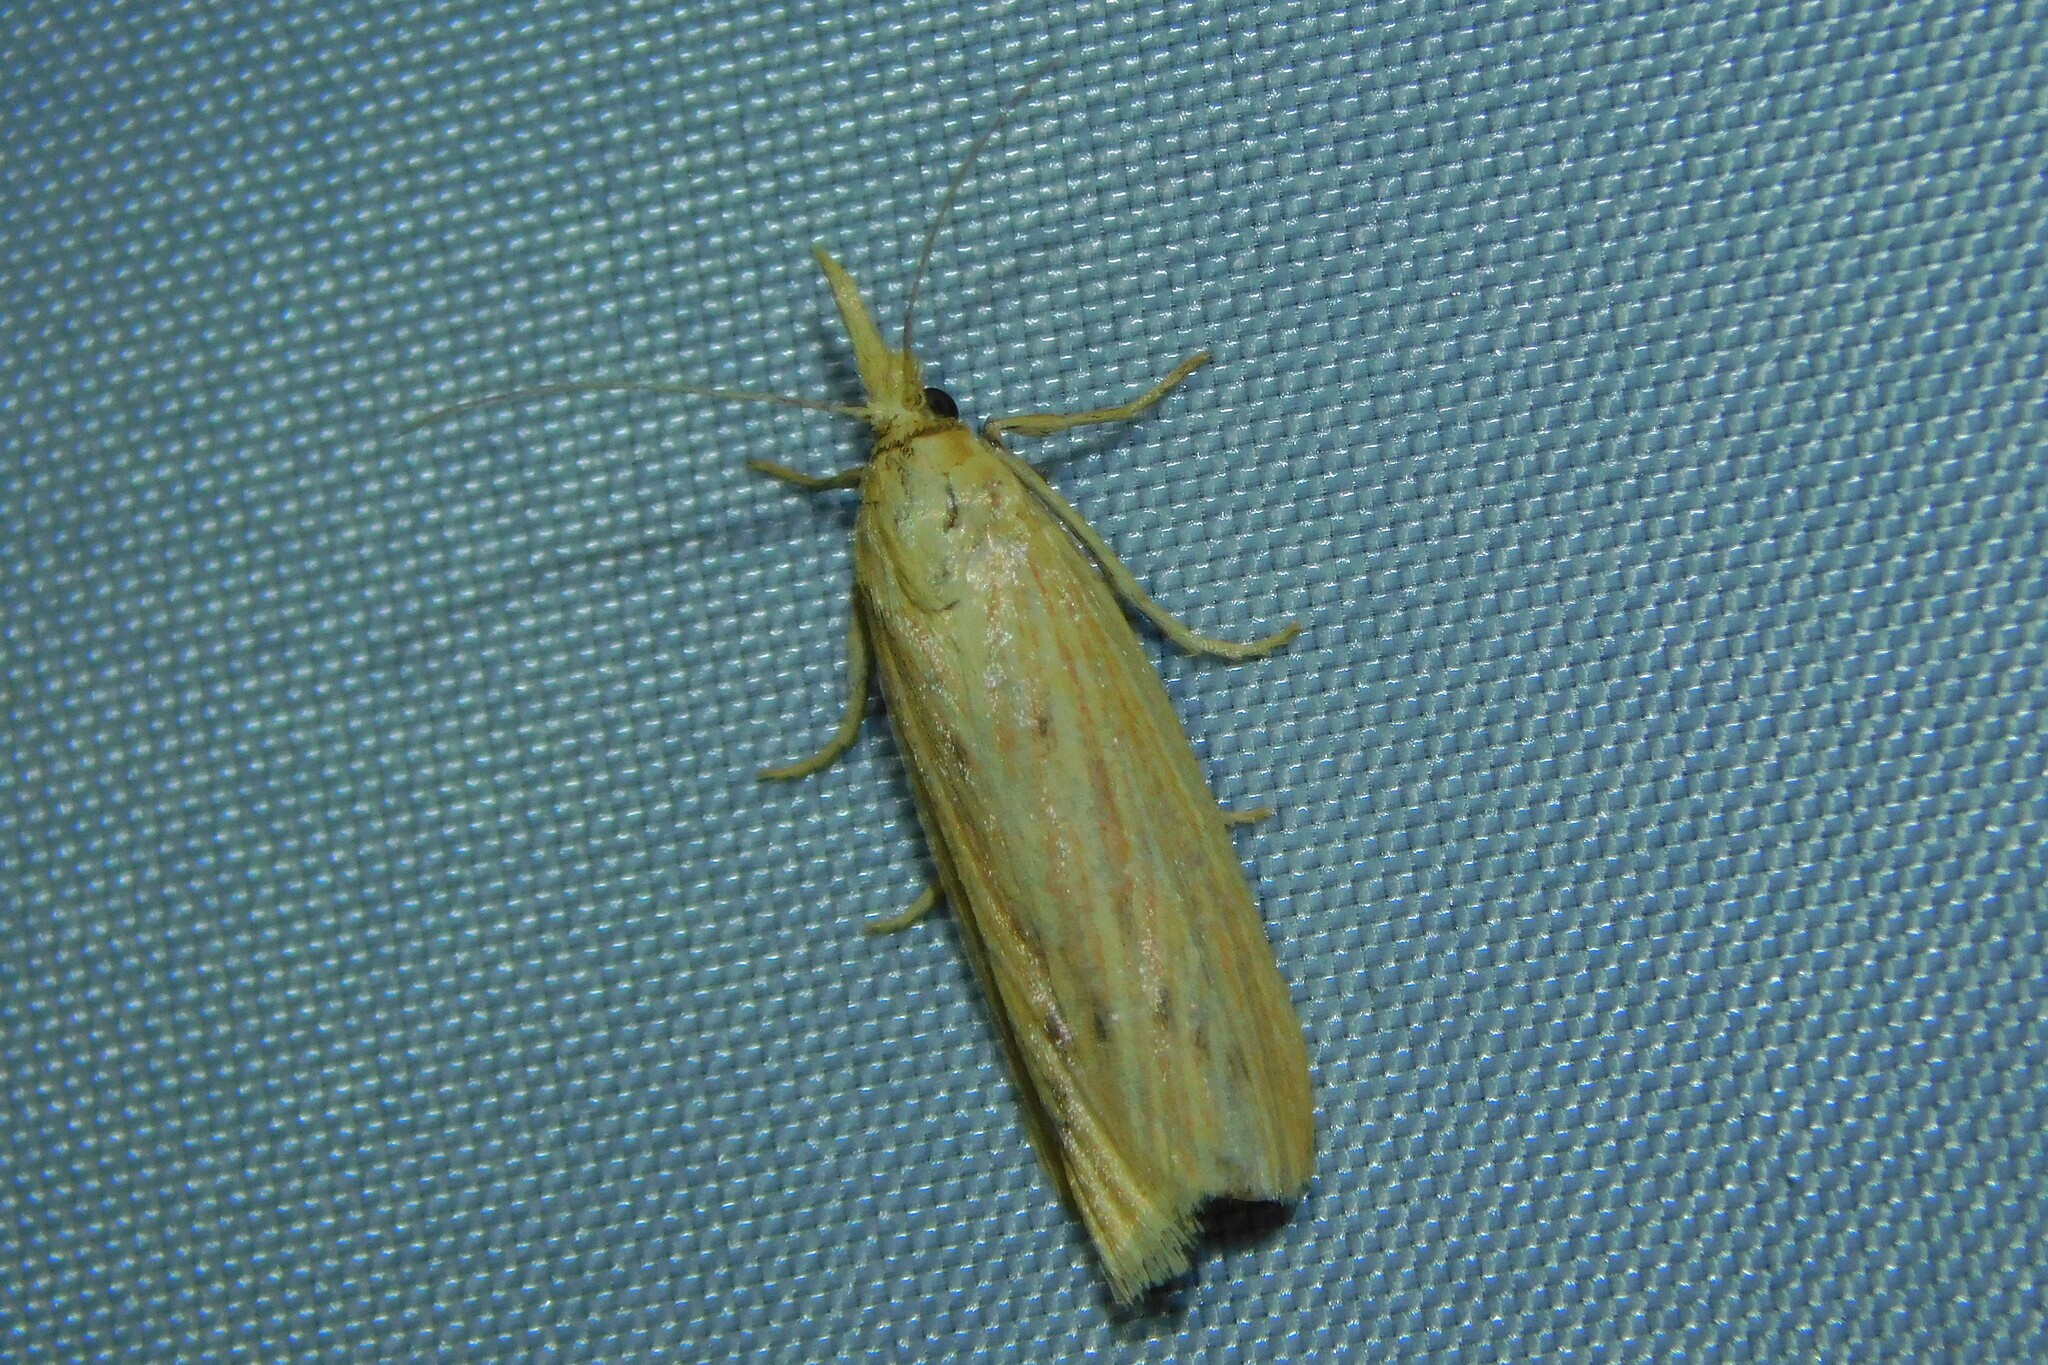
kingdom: Animalia
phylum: Arthropoda
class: Insecta
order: Lepidoptera
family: Pyralidae
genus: Ematheudes
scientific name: Ematheudes punctellus
